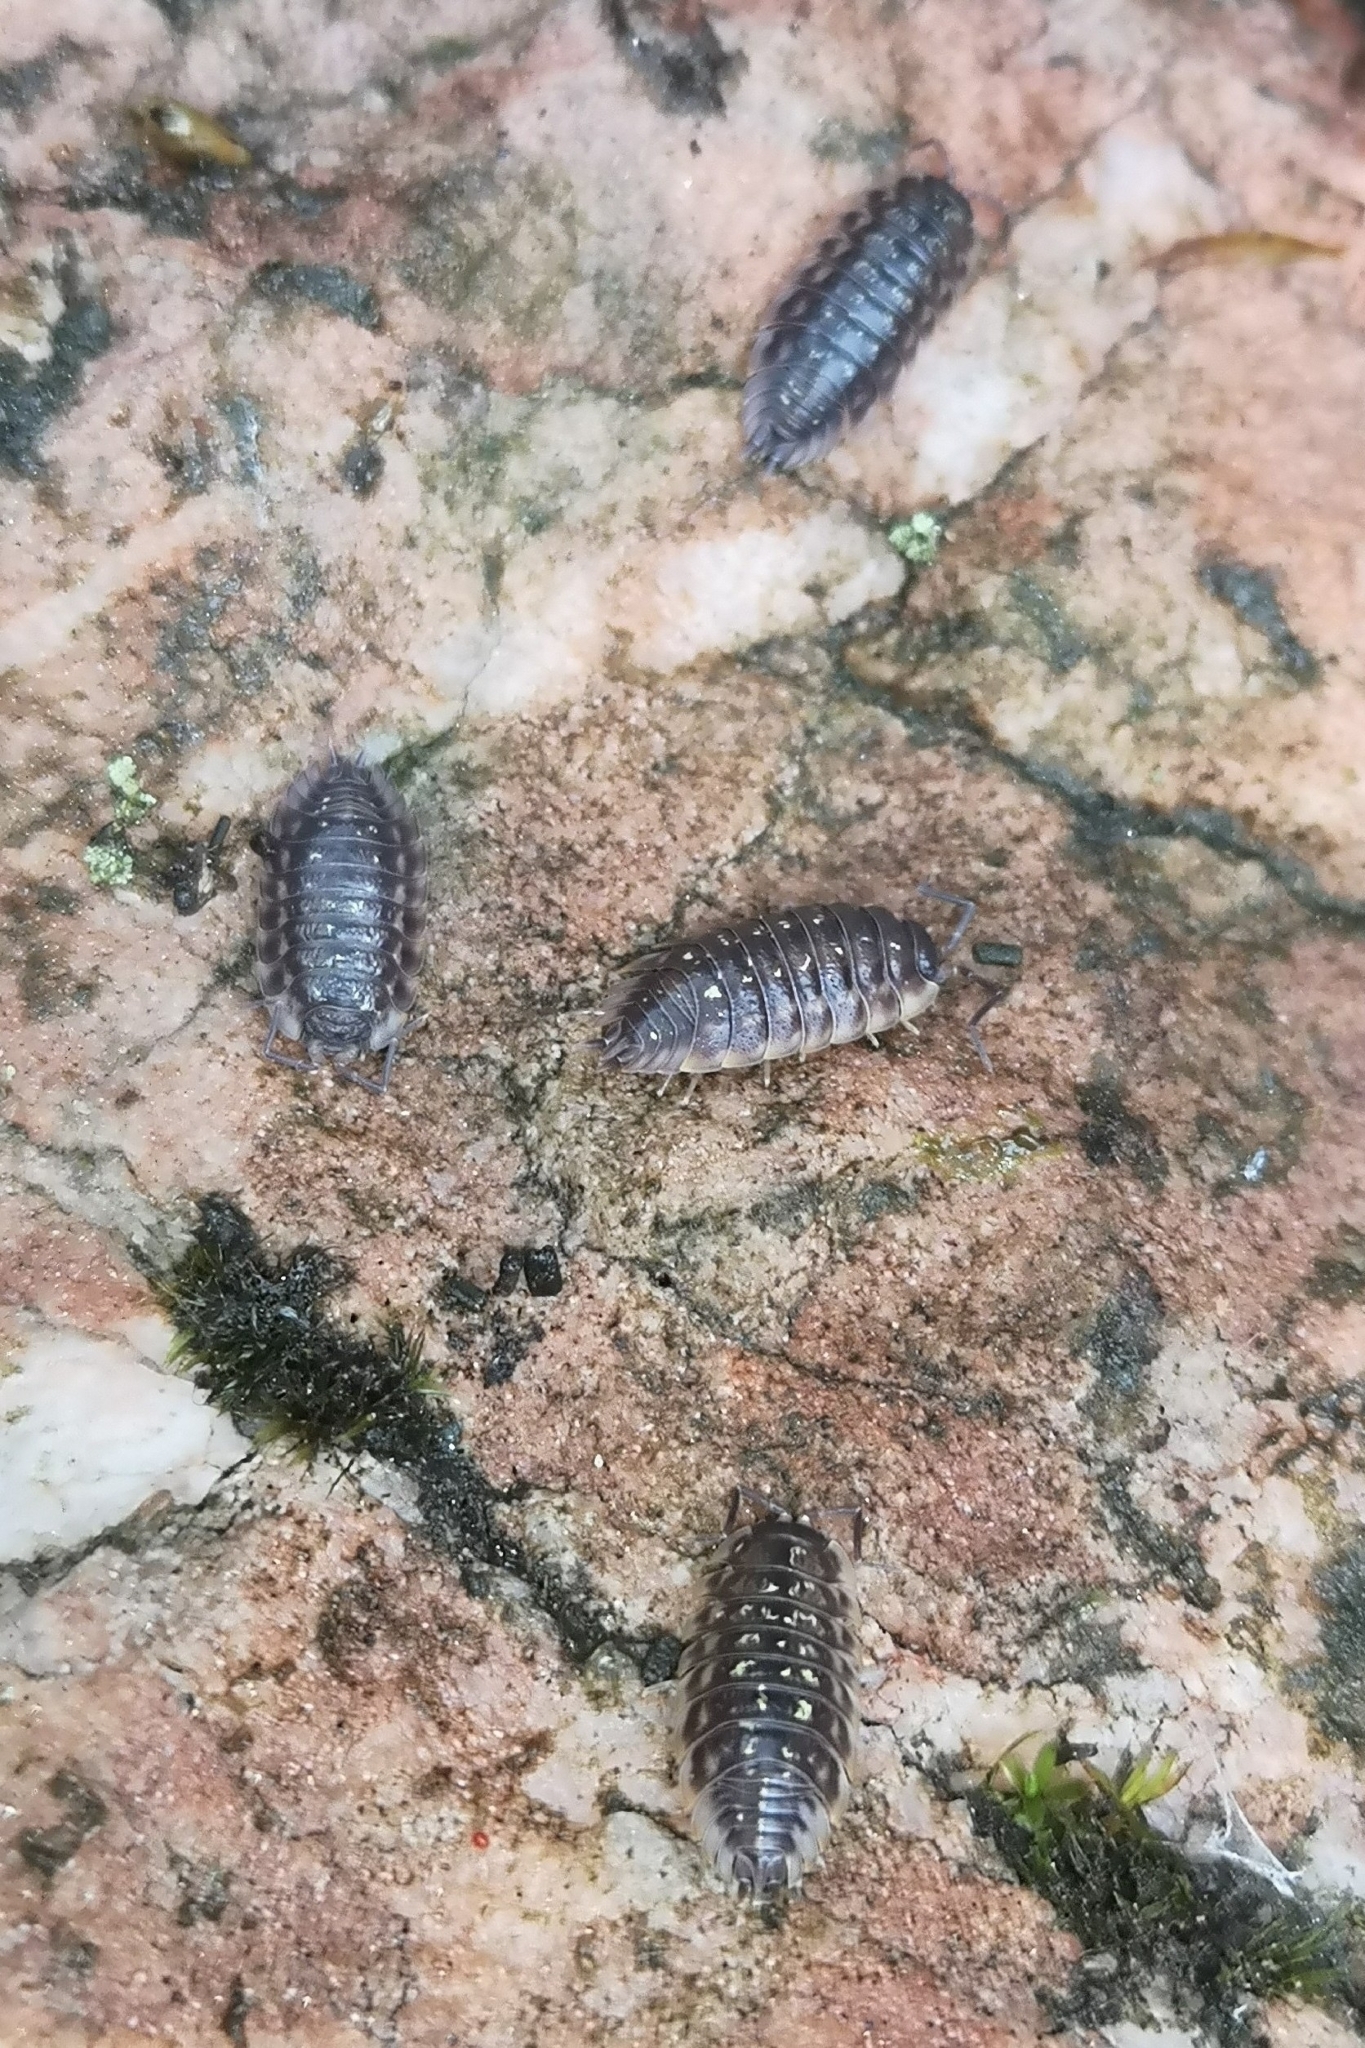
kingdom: Animalia
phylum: Arthropoda
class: Malacostraca
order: Isopoda
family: Oniscidae
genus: Oniscus
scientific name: Oniscus asellus
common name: Common shiny woodlouse
